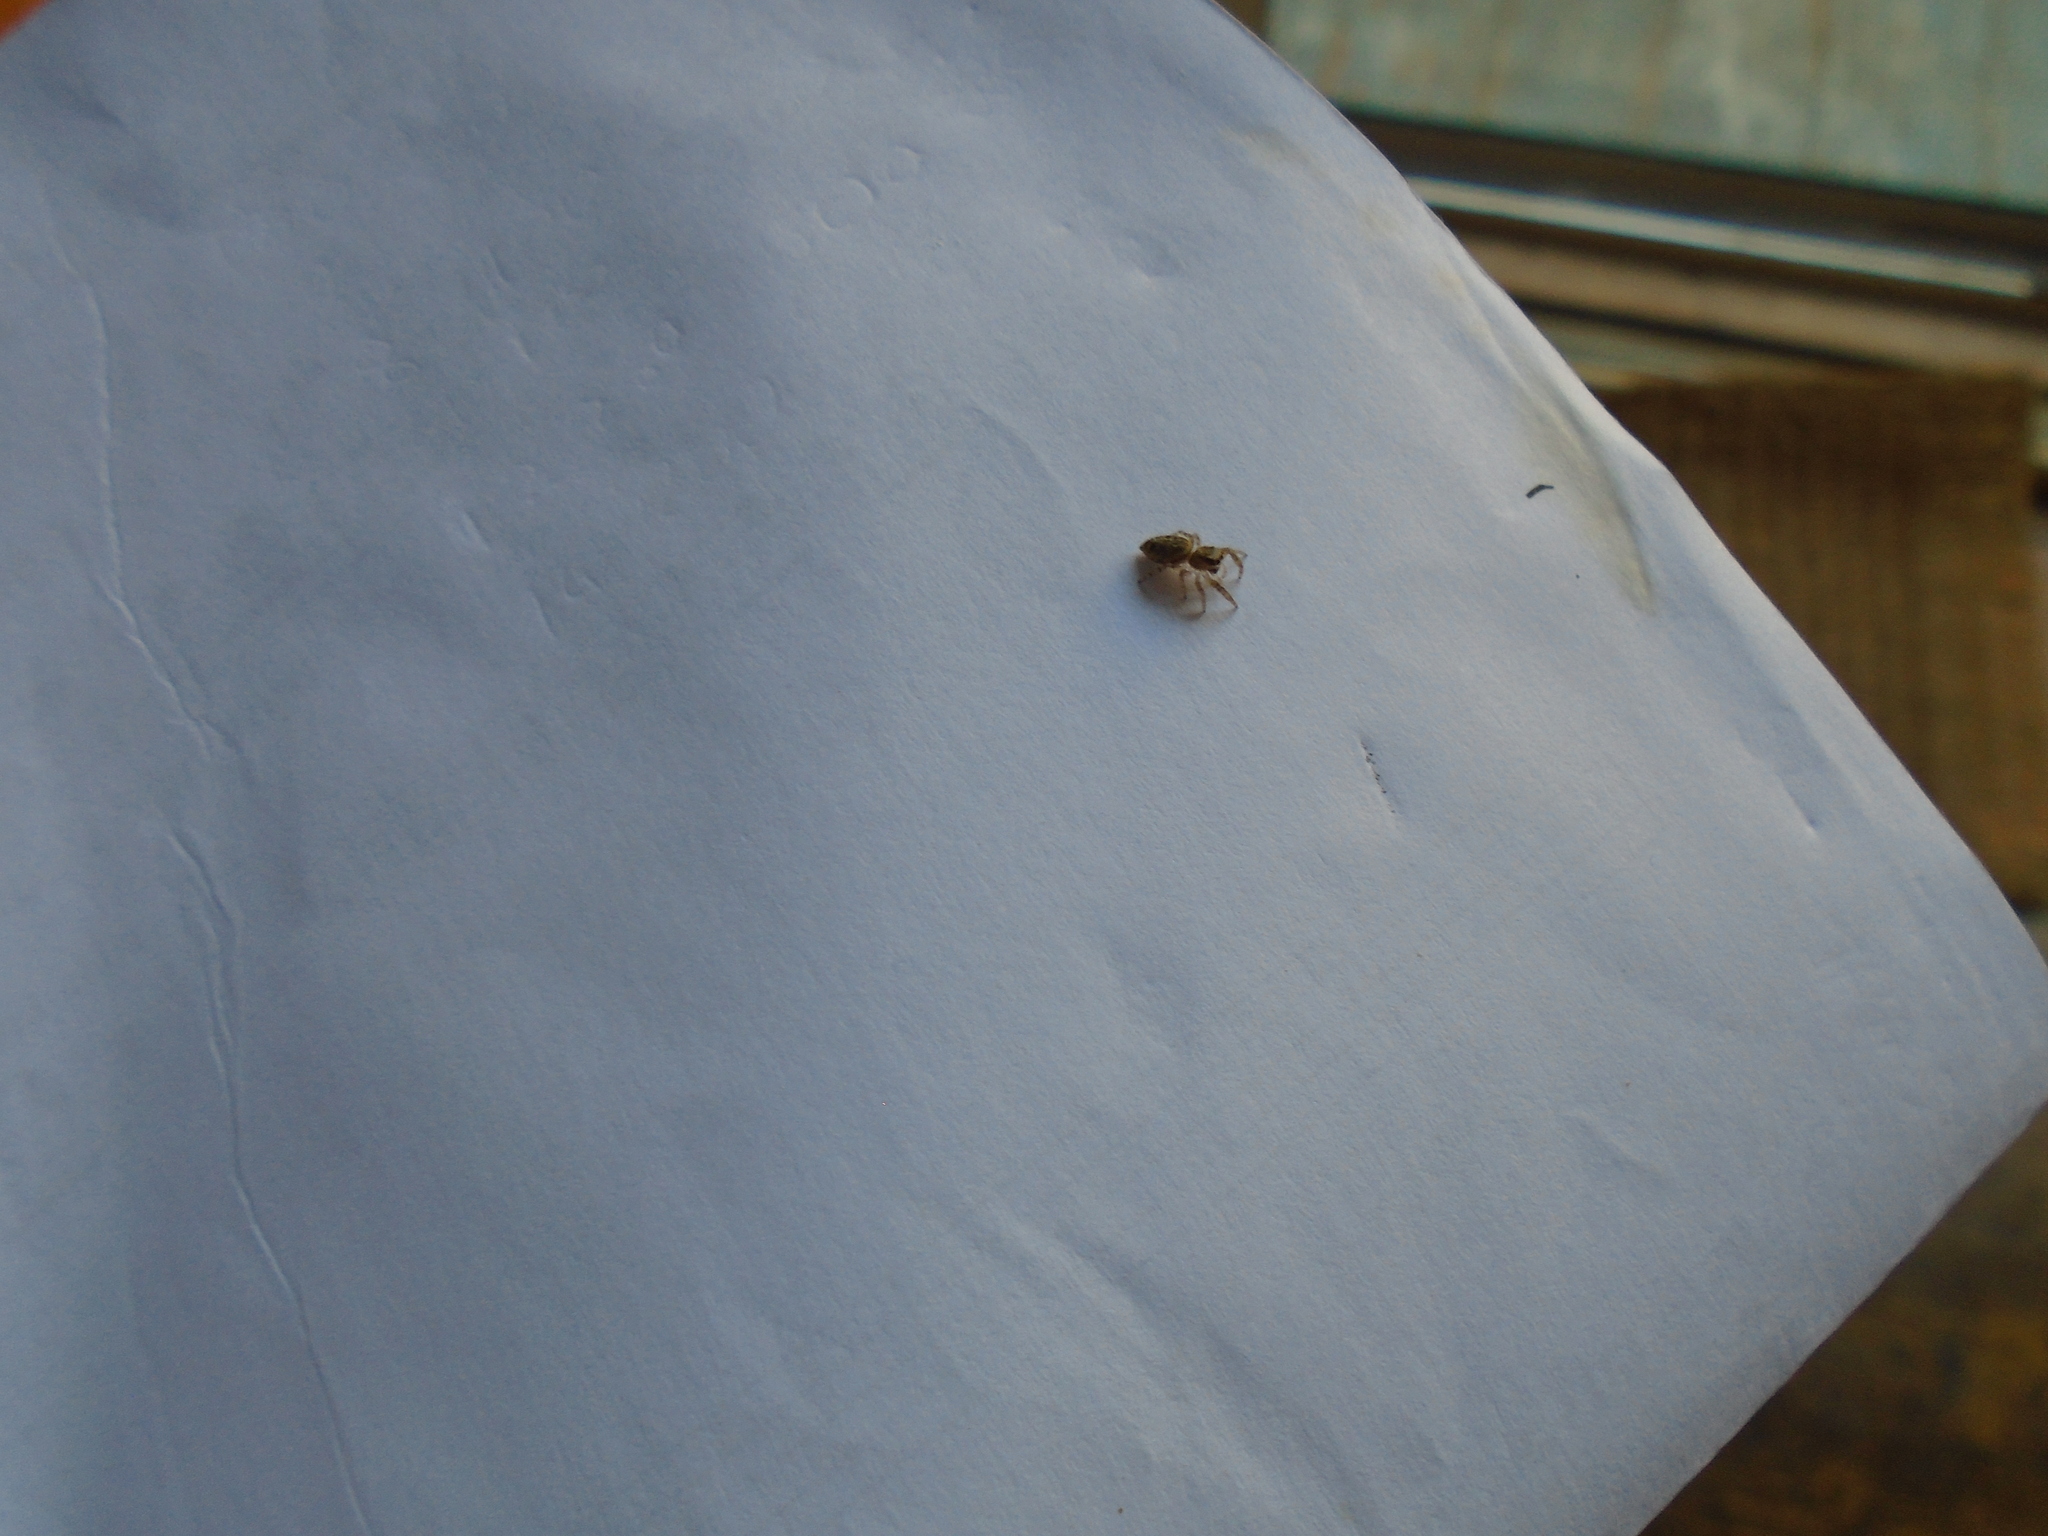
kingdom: Animalia
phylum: Arthropoda
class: Arachnida
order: Araneae
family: Salticidae
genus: Macaroeris
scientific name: Macaroeris nidicolens
